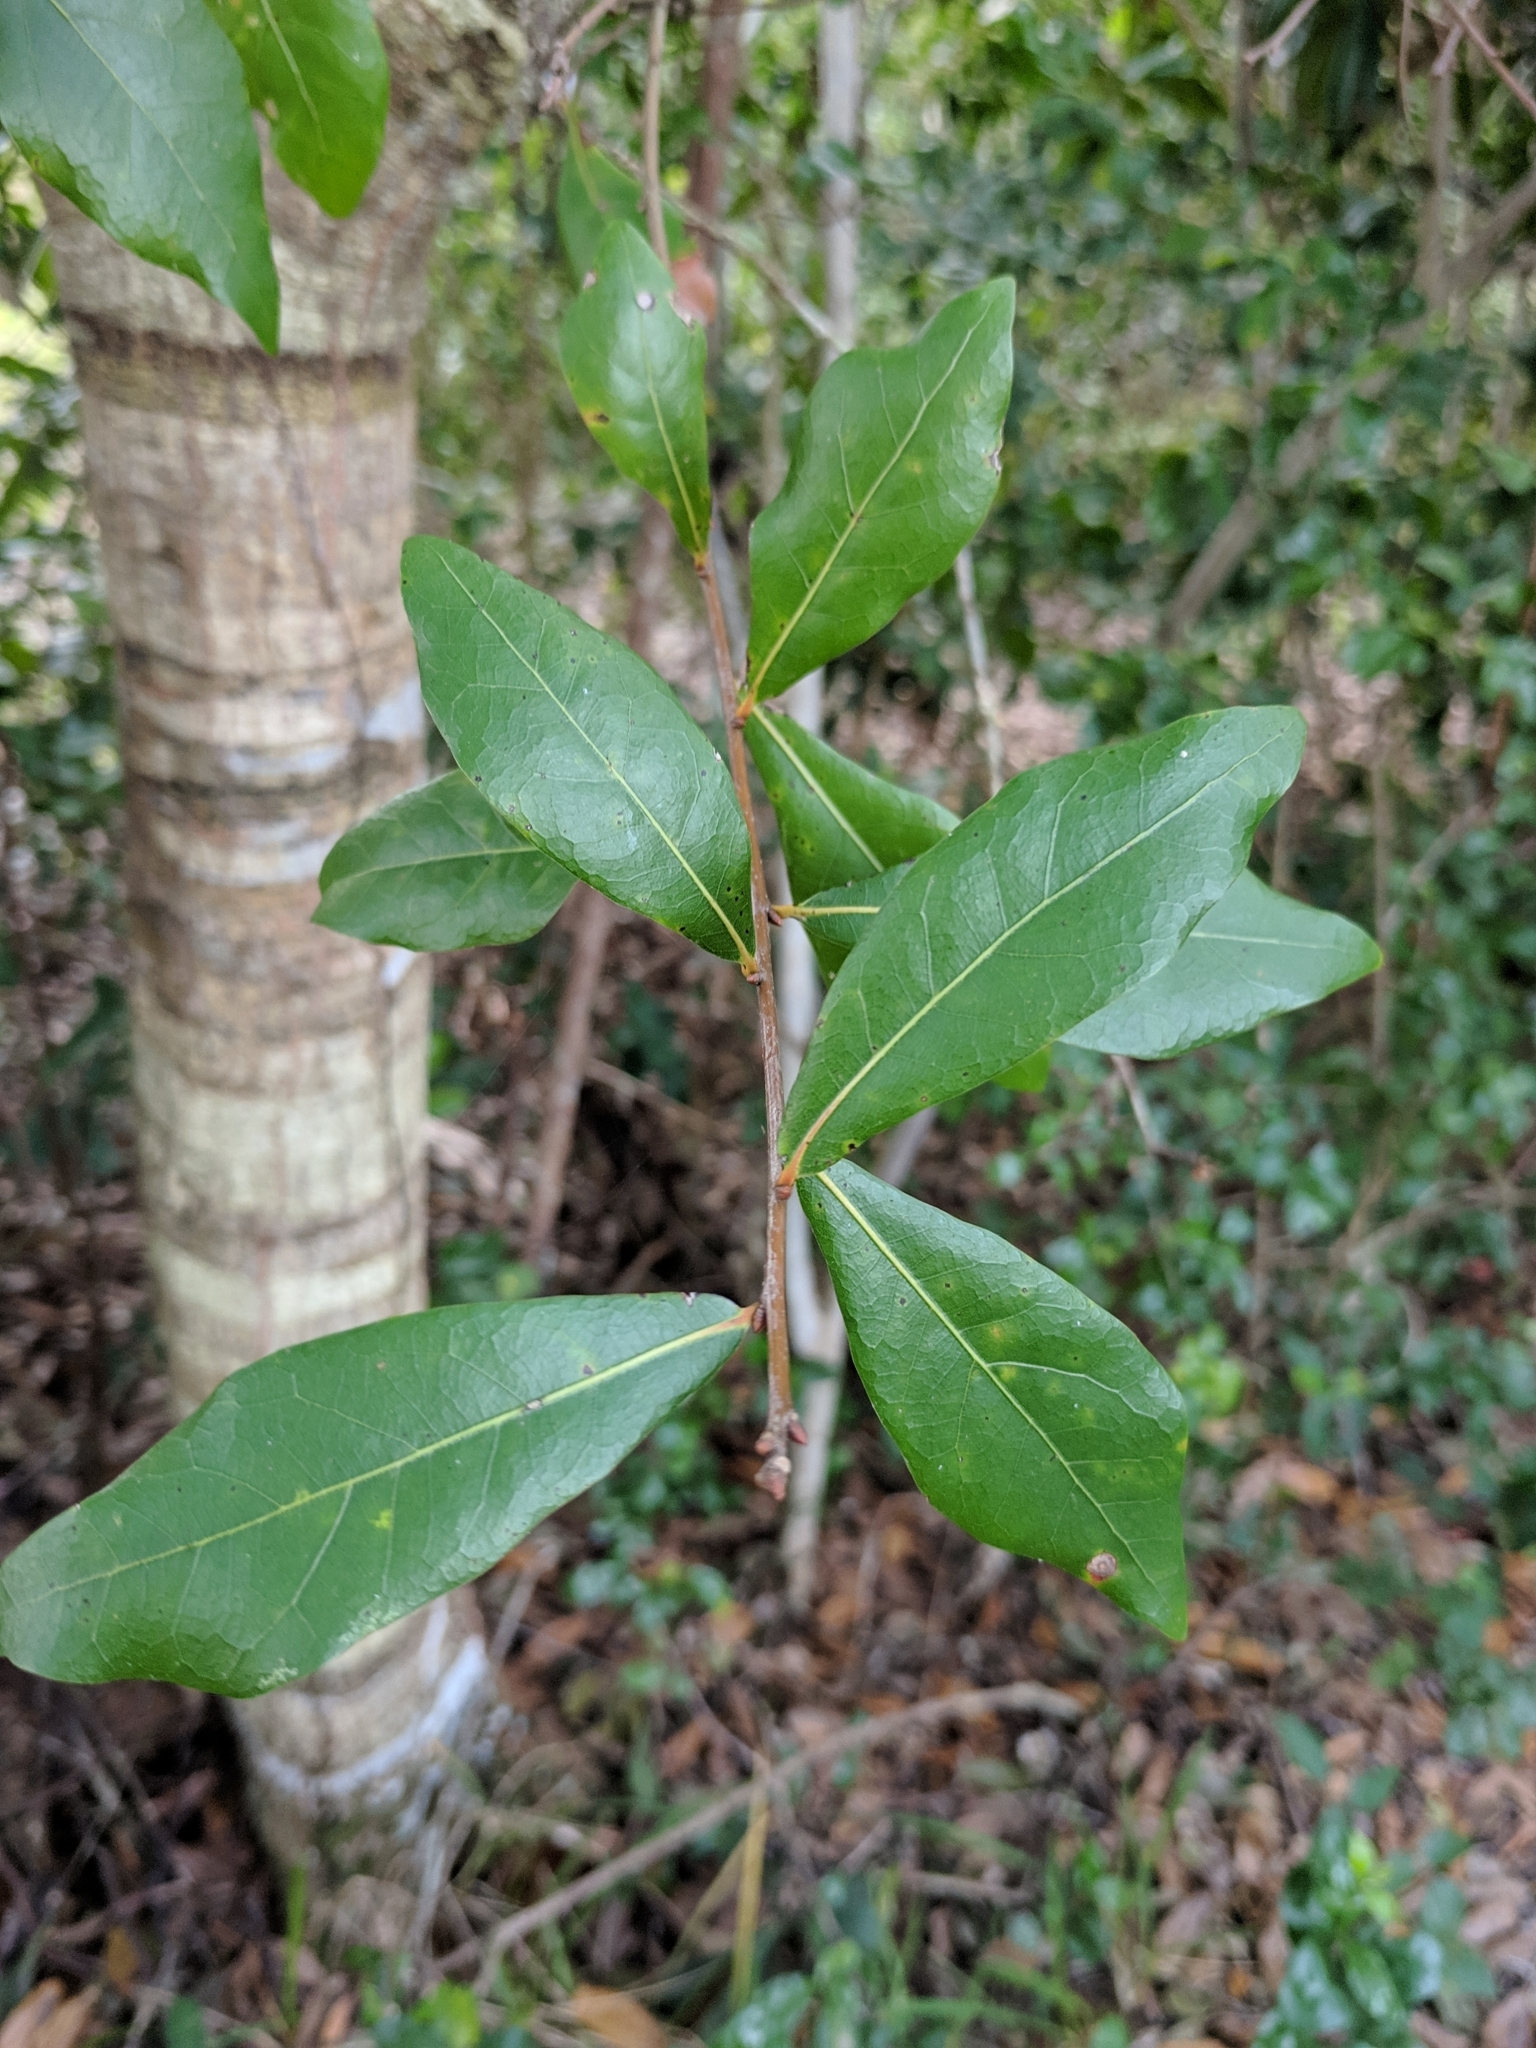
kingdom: Plantae
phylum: Tracheophyta
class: Magnoliopsida
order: Fagales
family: Fagaceae
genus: Quercus
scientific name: Quercus laurifolia
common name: Swamp laurel oak
